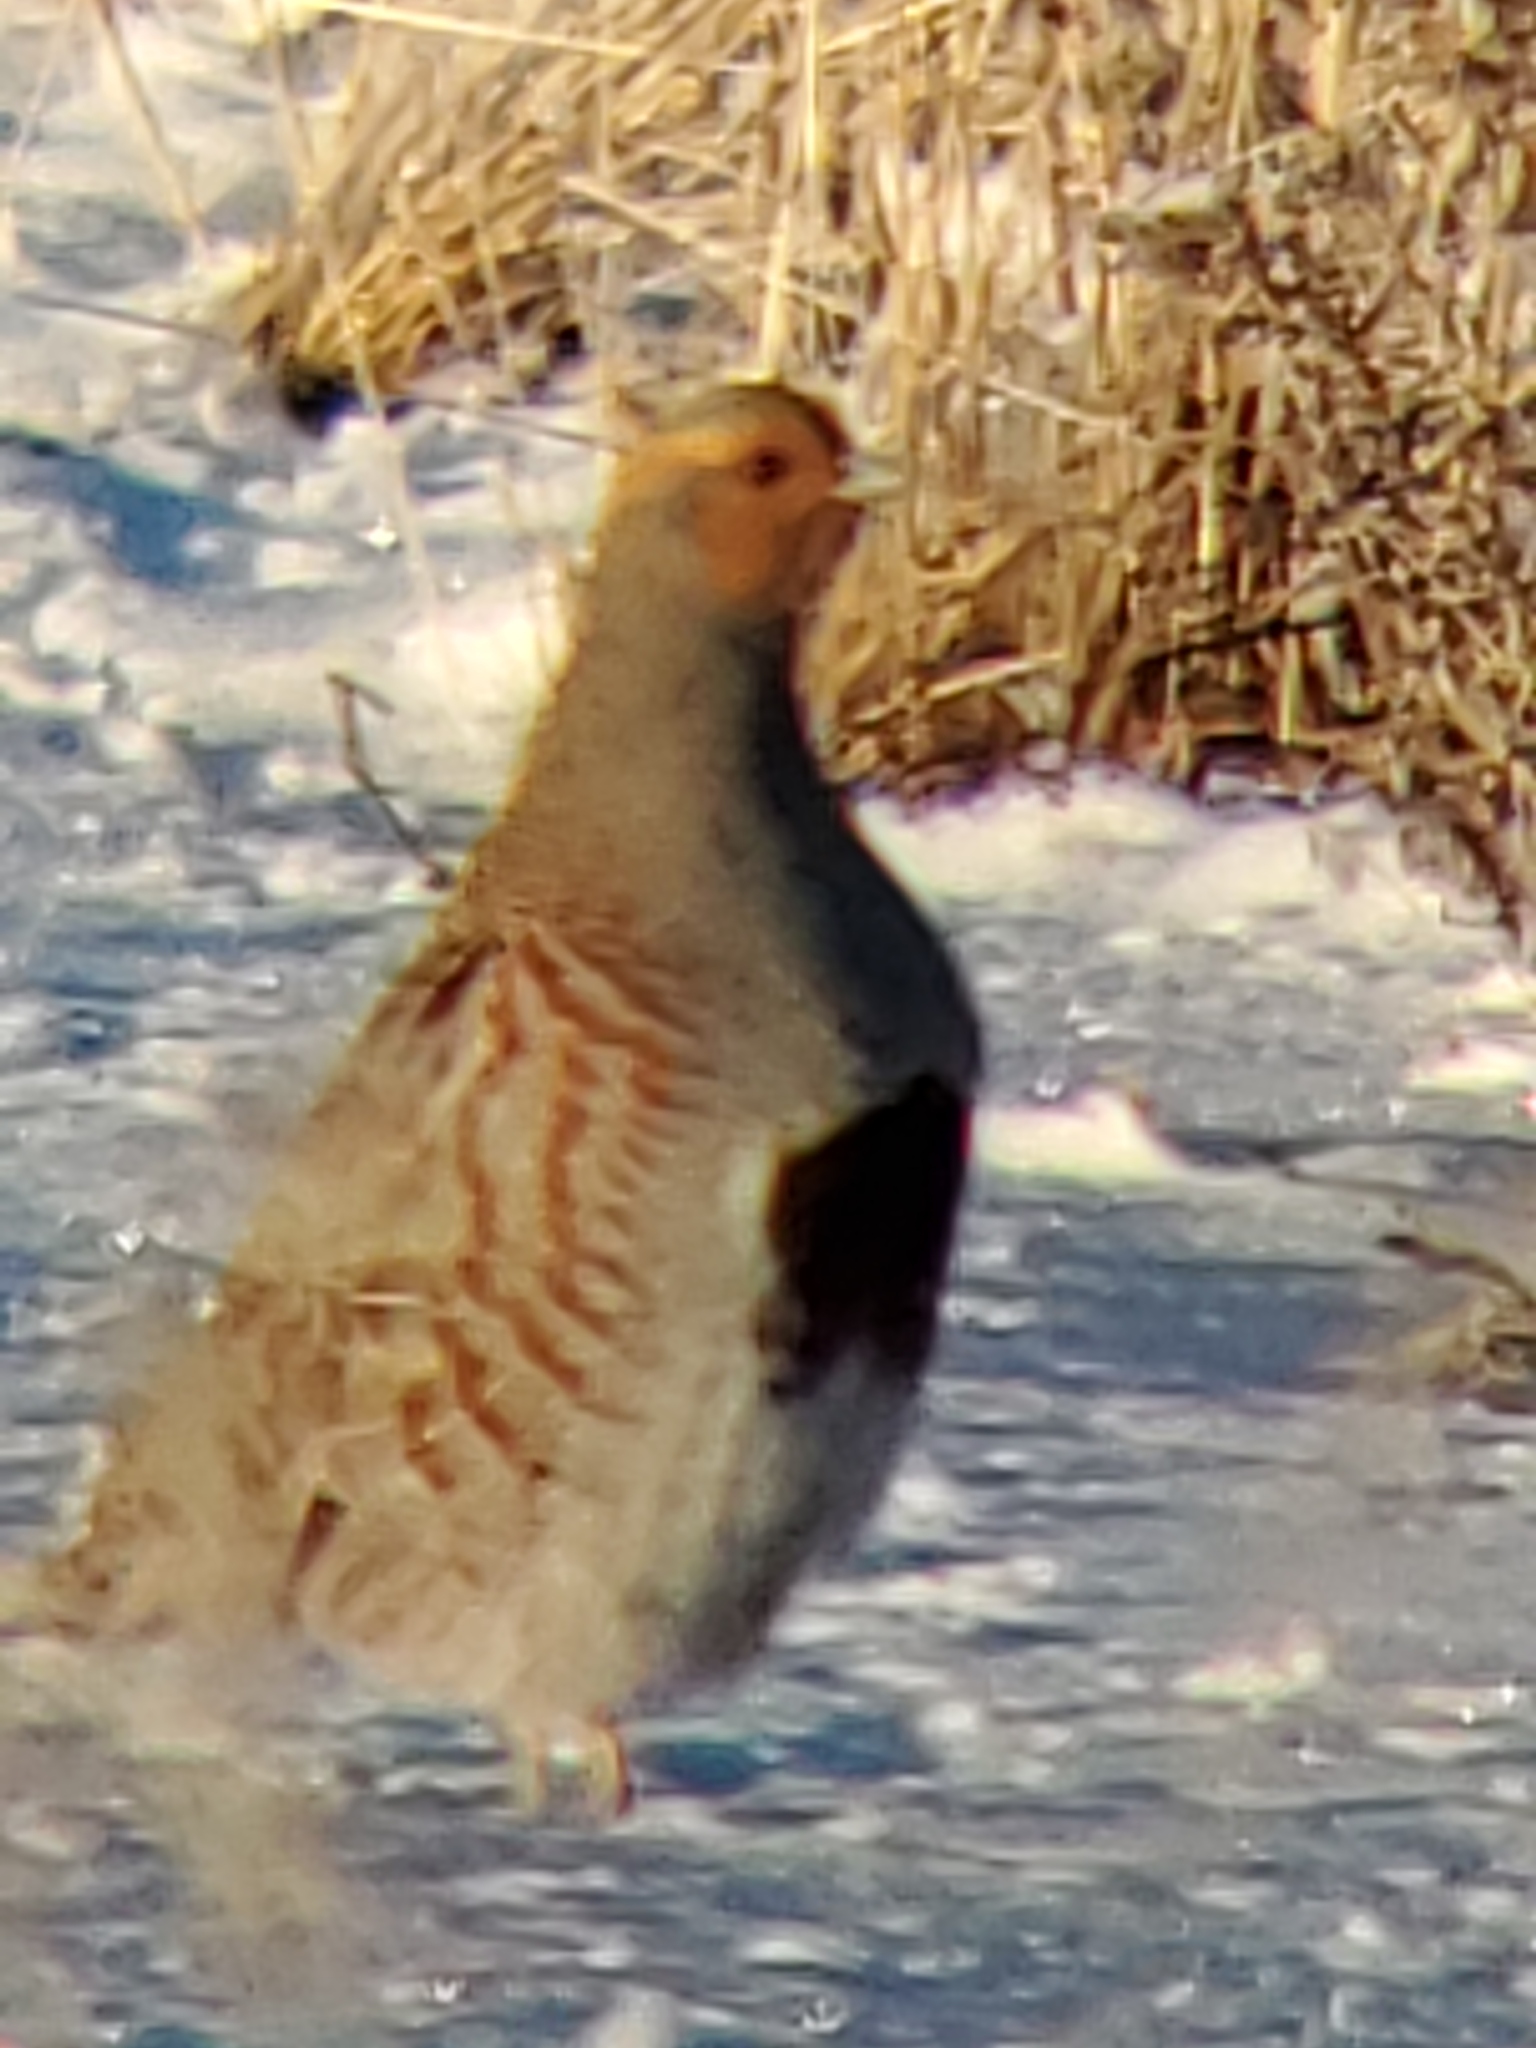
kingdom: Animalia
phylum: Chordata
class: Aves
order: Galliformes
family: Phasianidae
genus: Perdix
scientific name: Perdix perdix
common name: Grey partridge
